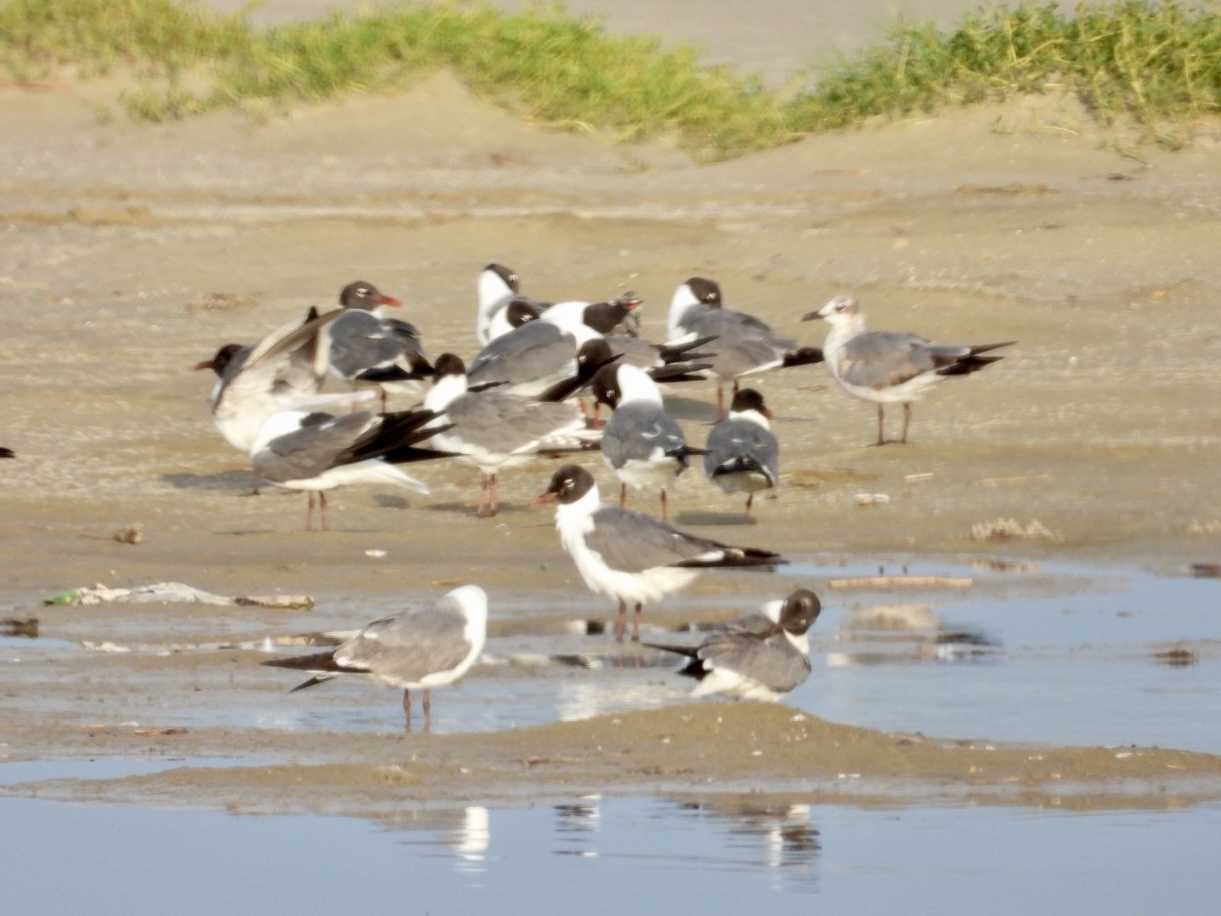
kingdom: Animalia
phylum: Chordata
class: Aves
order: Charadriiformes
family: Laridae
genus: Leucophaeus
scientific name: Leucophaeus atricilla
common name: Laughing gull
